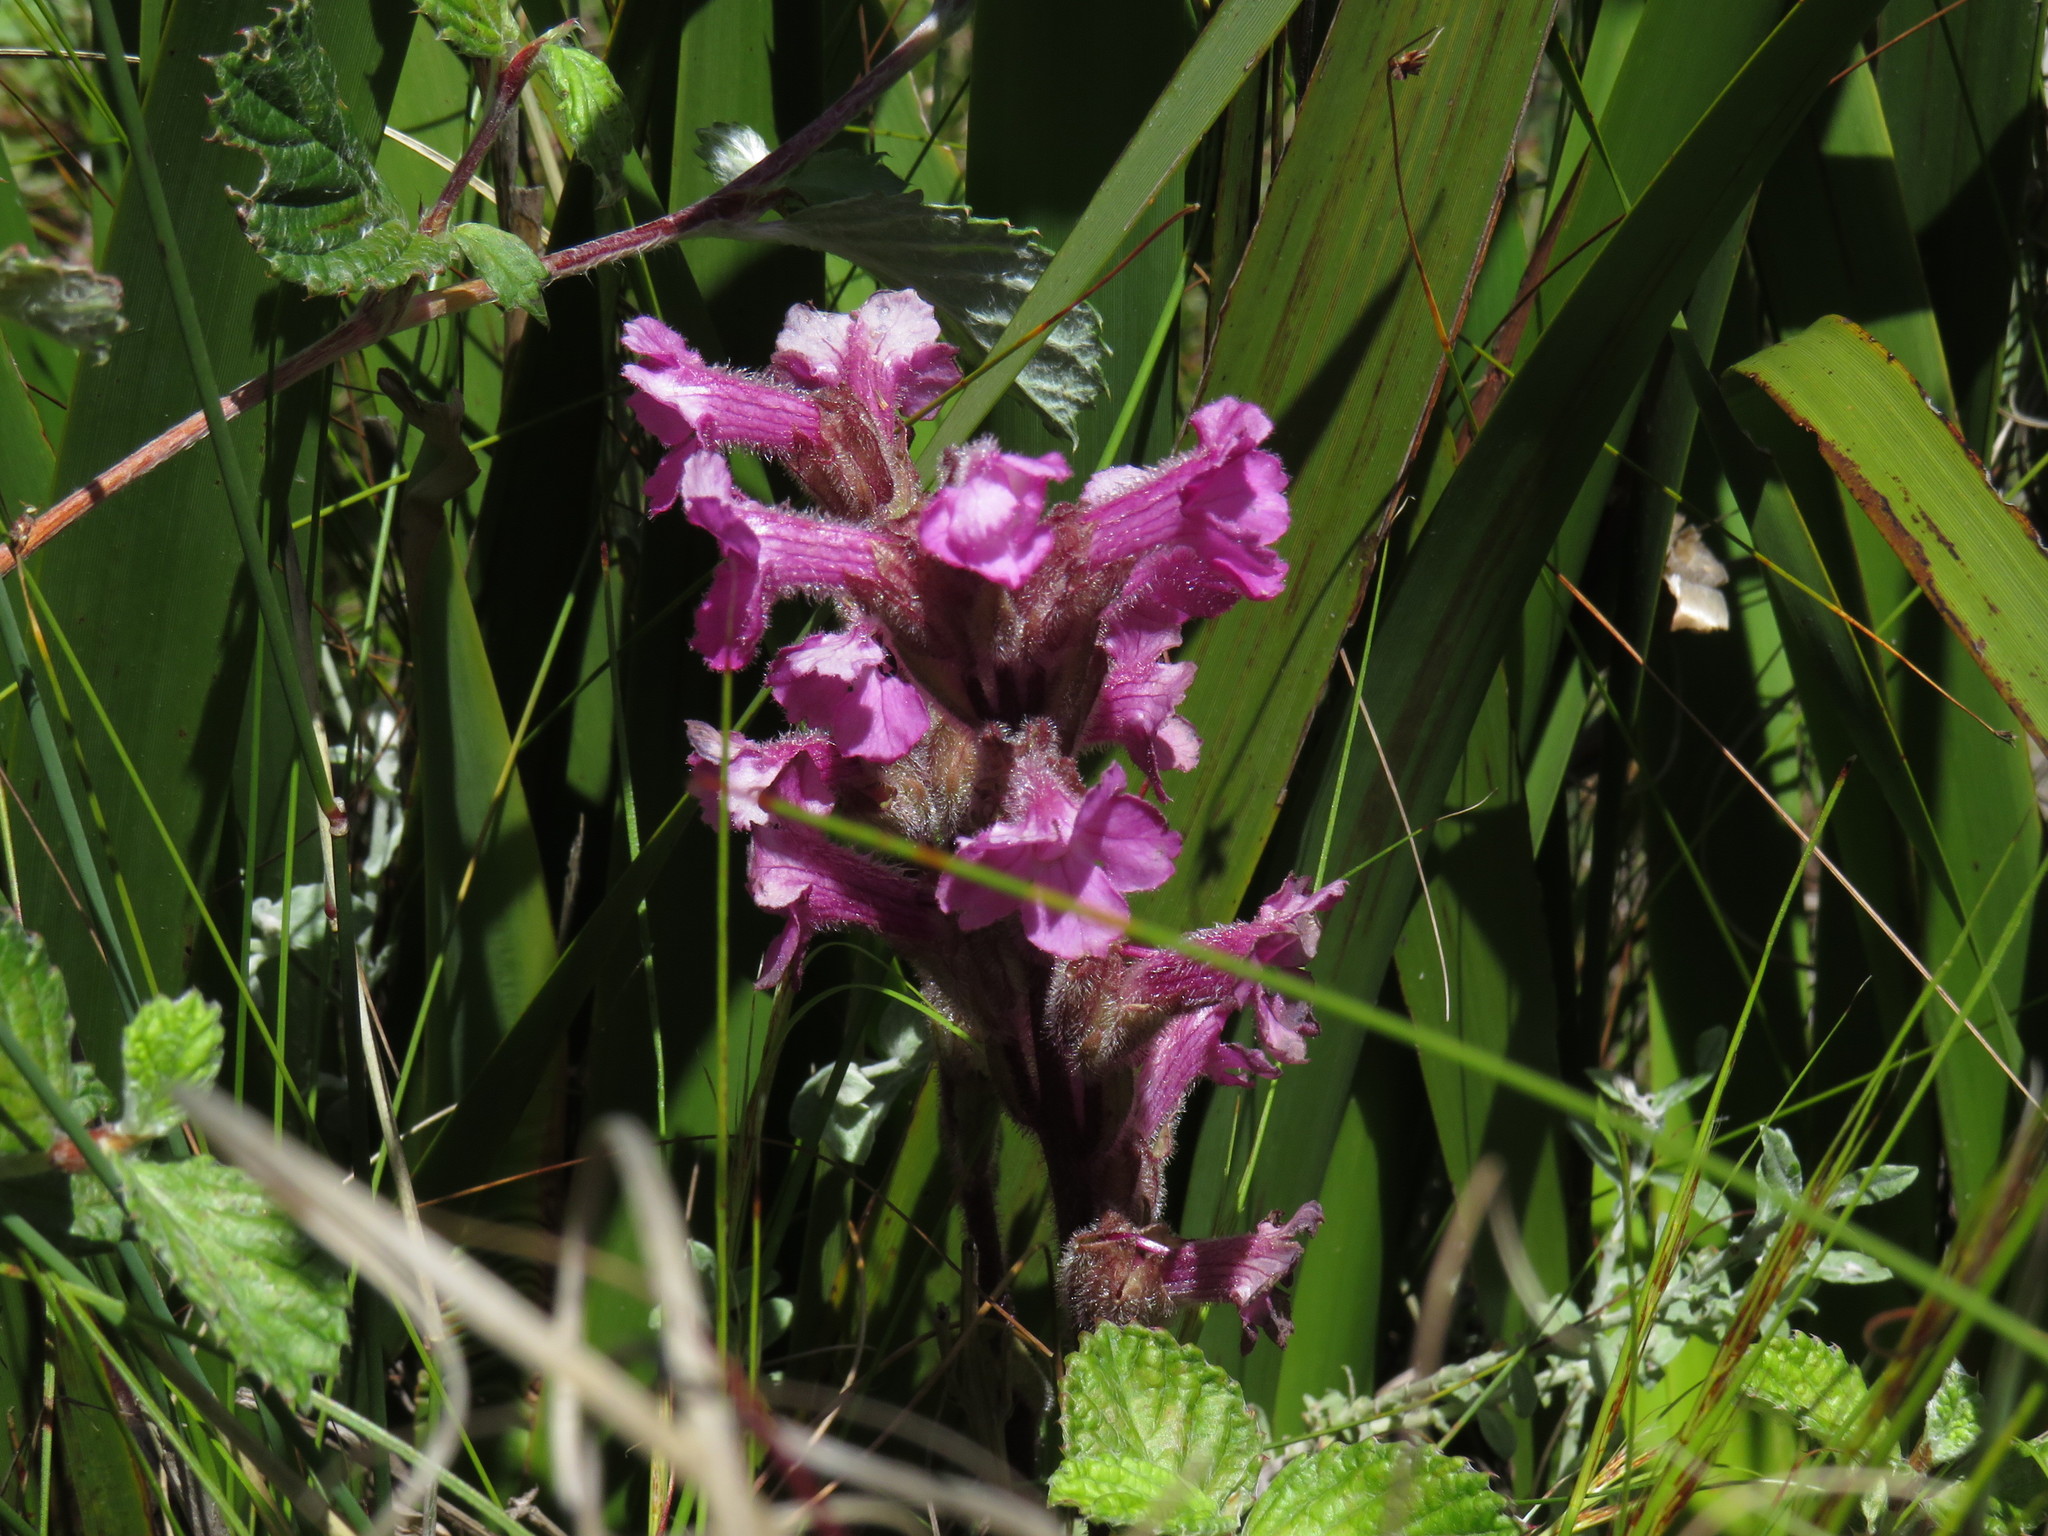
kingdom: Plantae
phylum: Tracheophyta
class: Magnoliopsida
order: Lamiales
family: Orobanchaceae
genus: Harveya
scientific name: Harveya pauciflora
